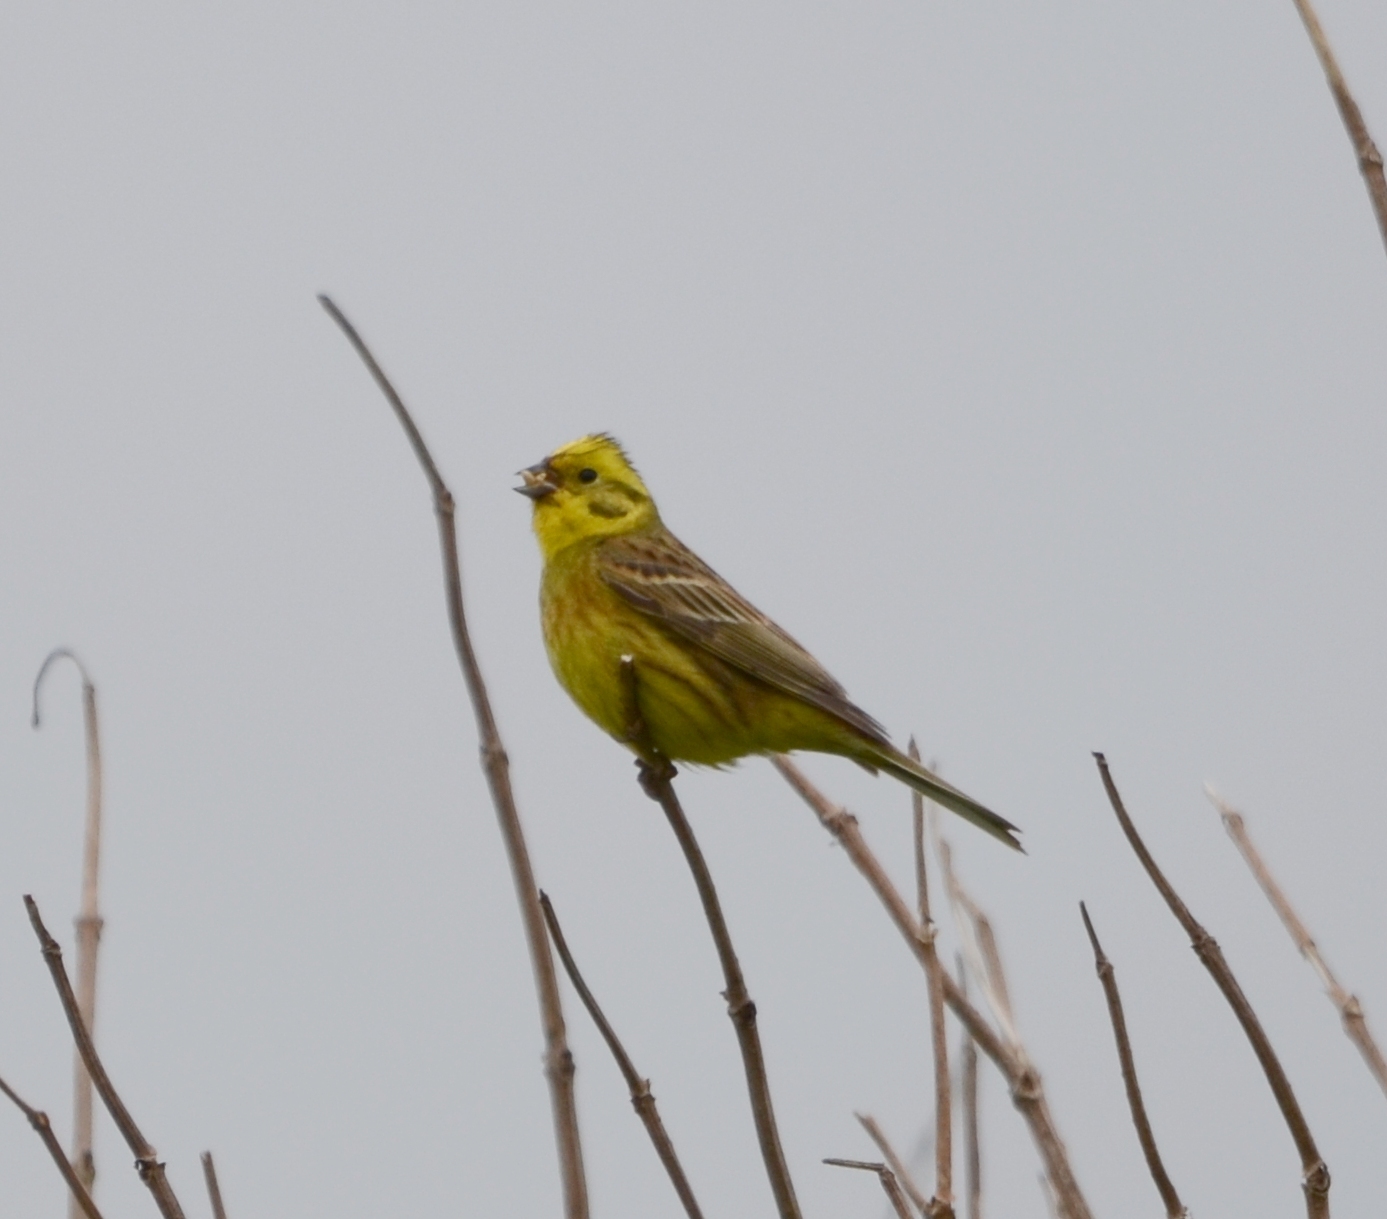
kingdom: Animalia
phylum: Chordata
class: Aves
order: Passeriformes
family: Emberizidae
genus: Emberiza
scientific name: Emberiza citrinella
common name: Yellowhammer
